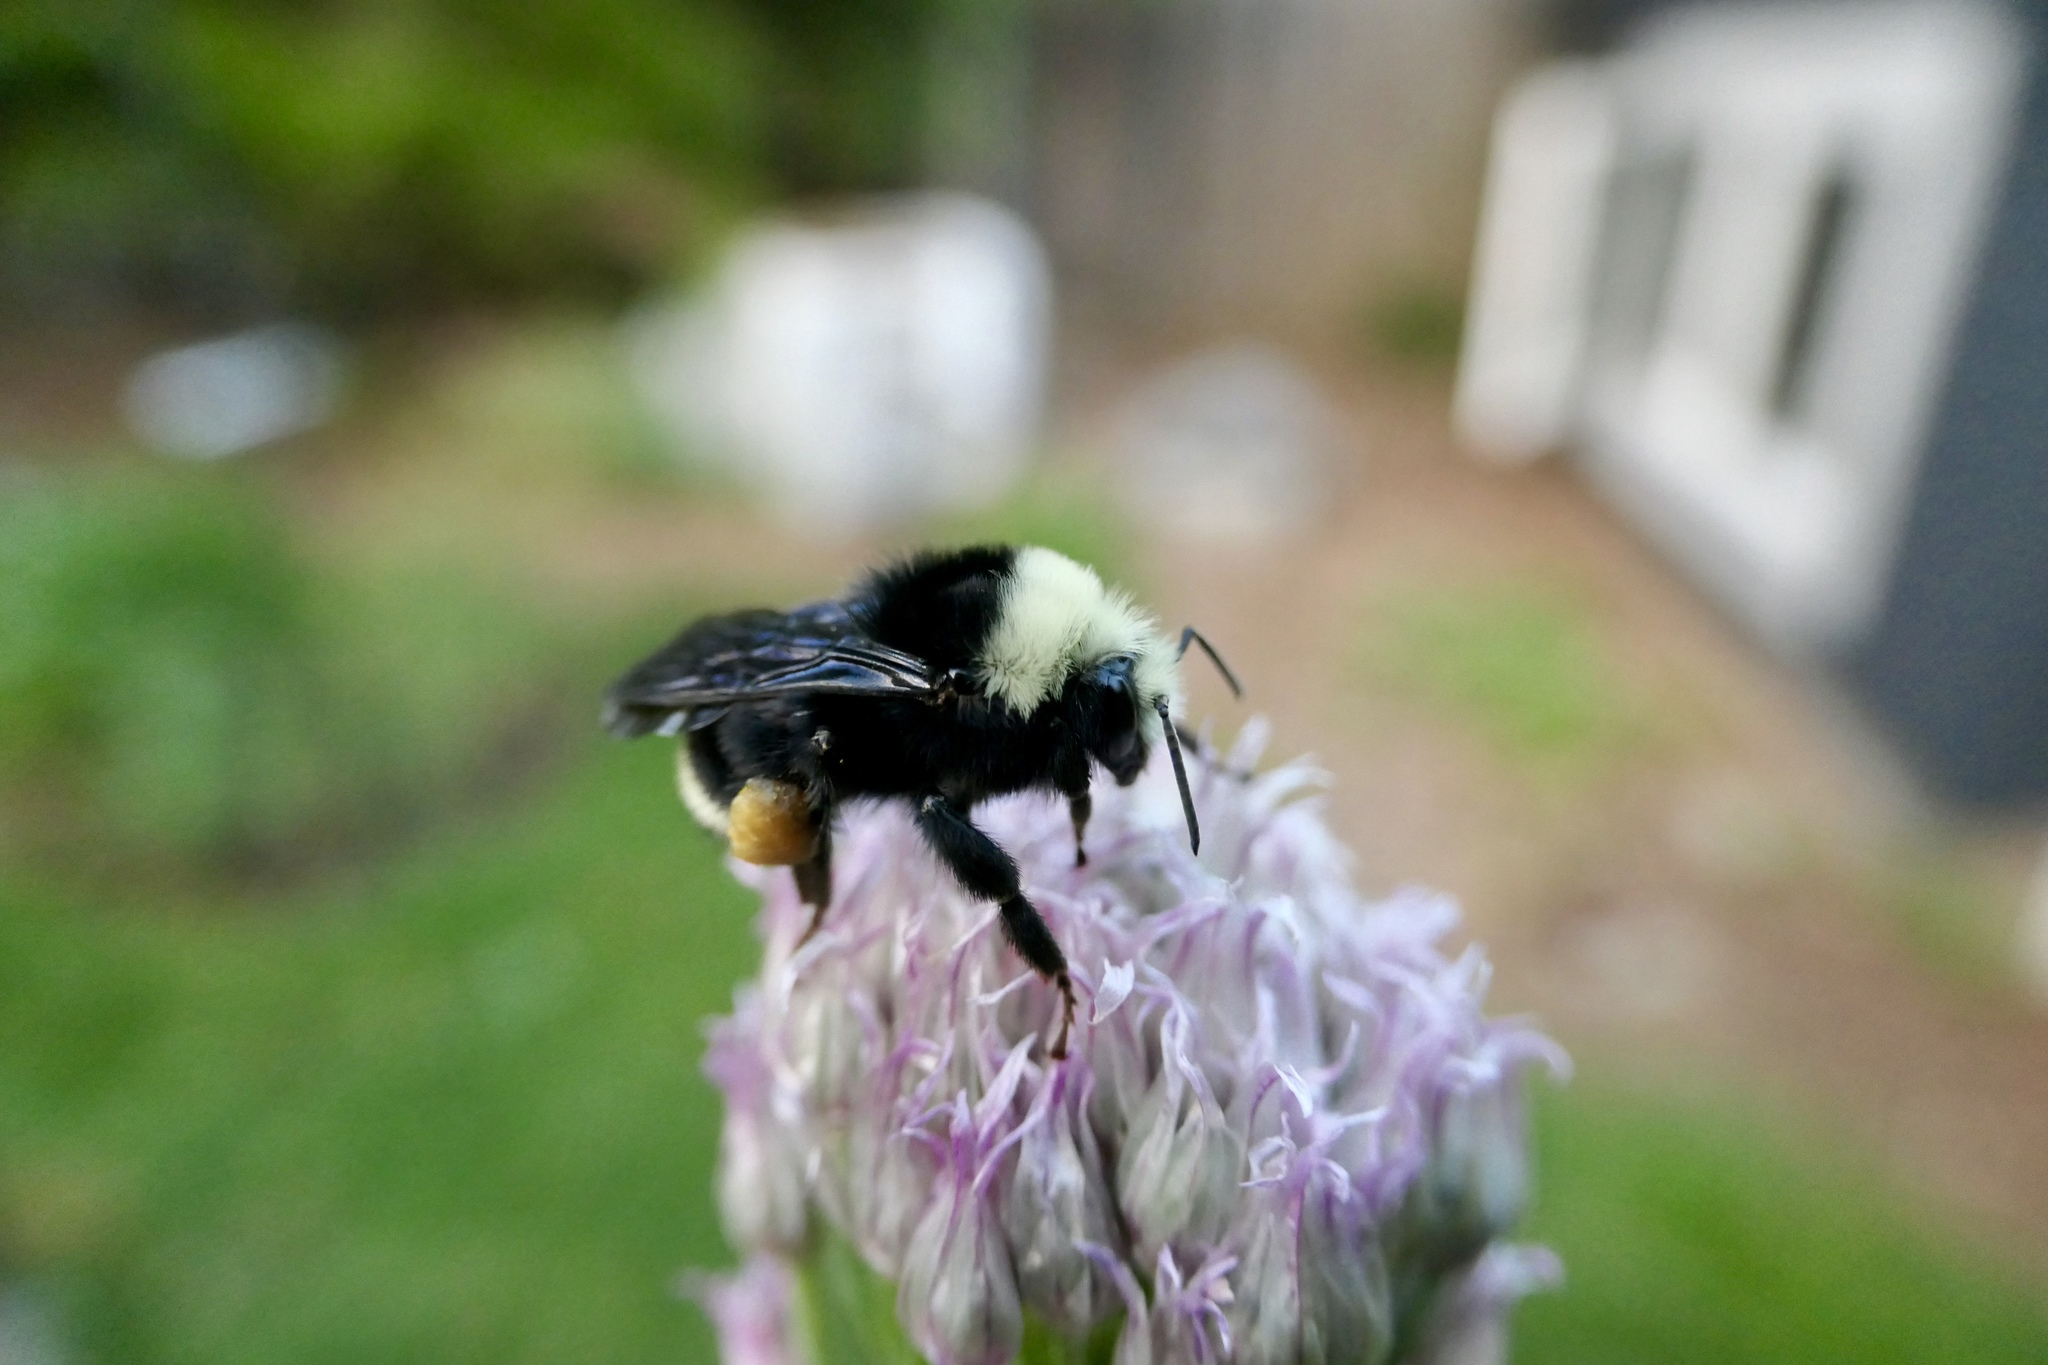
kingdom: Animalia
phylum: Arthropoda
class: Insecta
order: Hymenoptera
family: Apidae
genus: Bombus
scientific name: Bombus vosnesenskii
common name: Vosnesensky bumble bee
